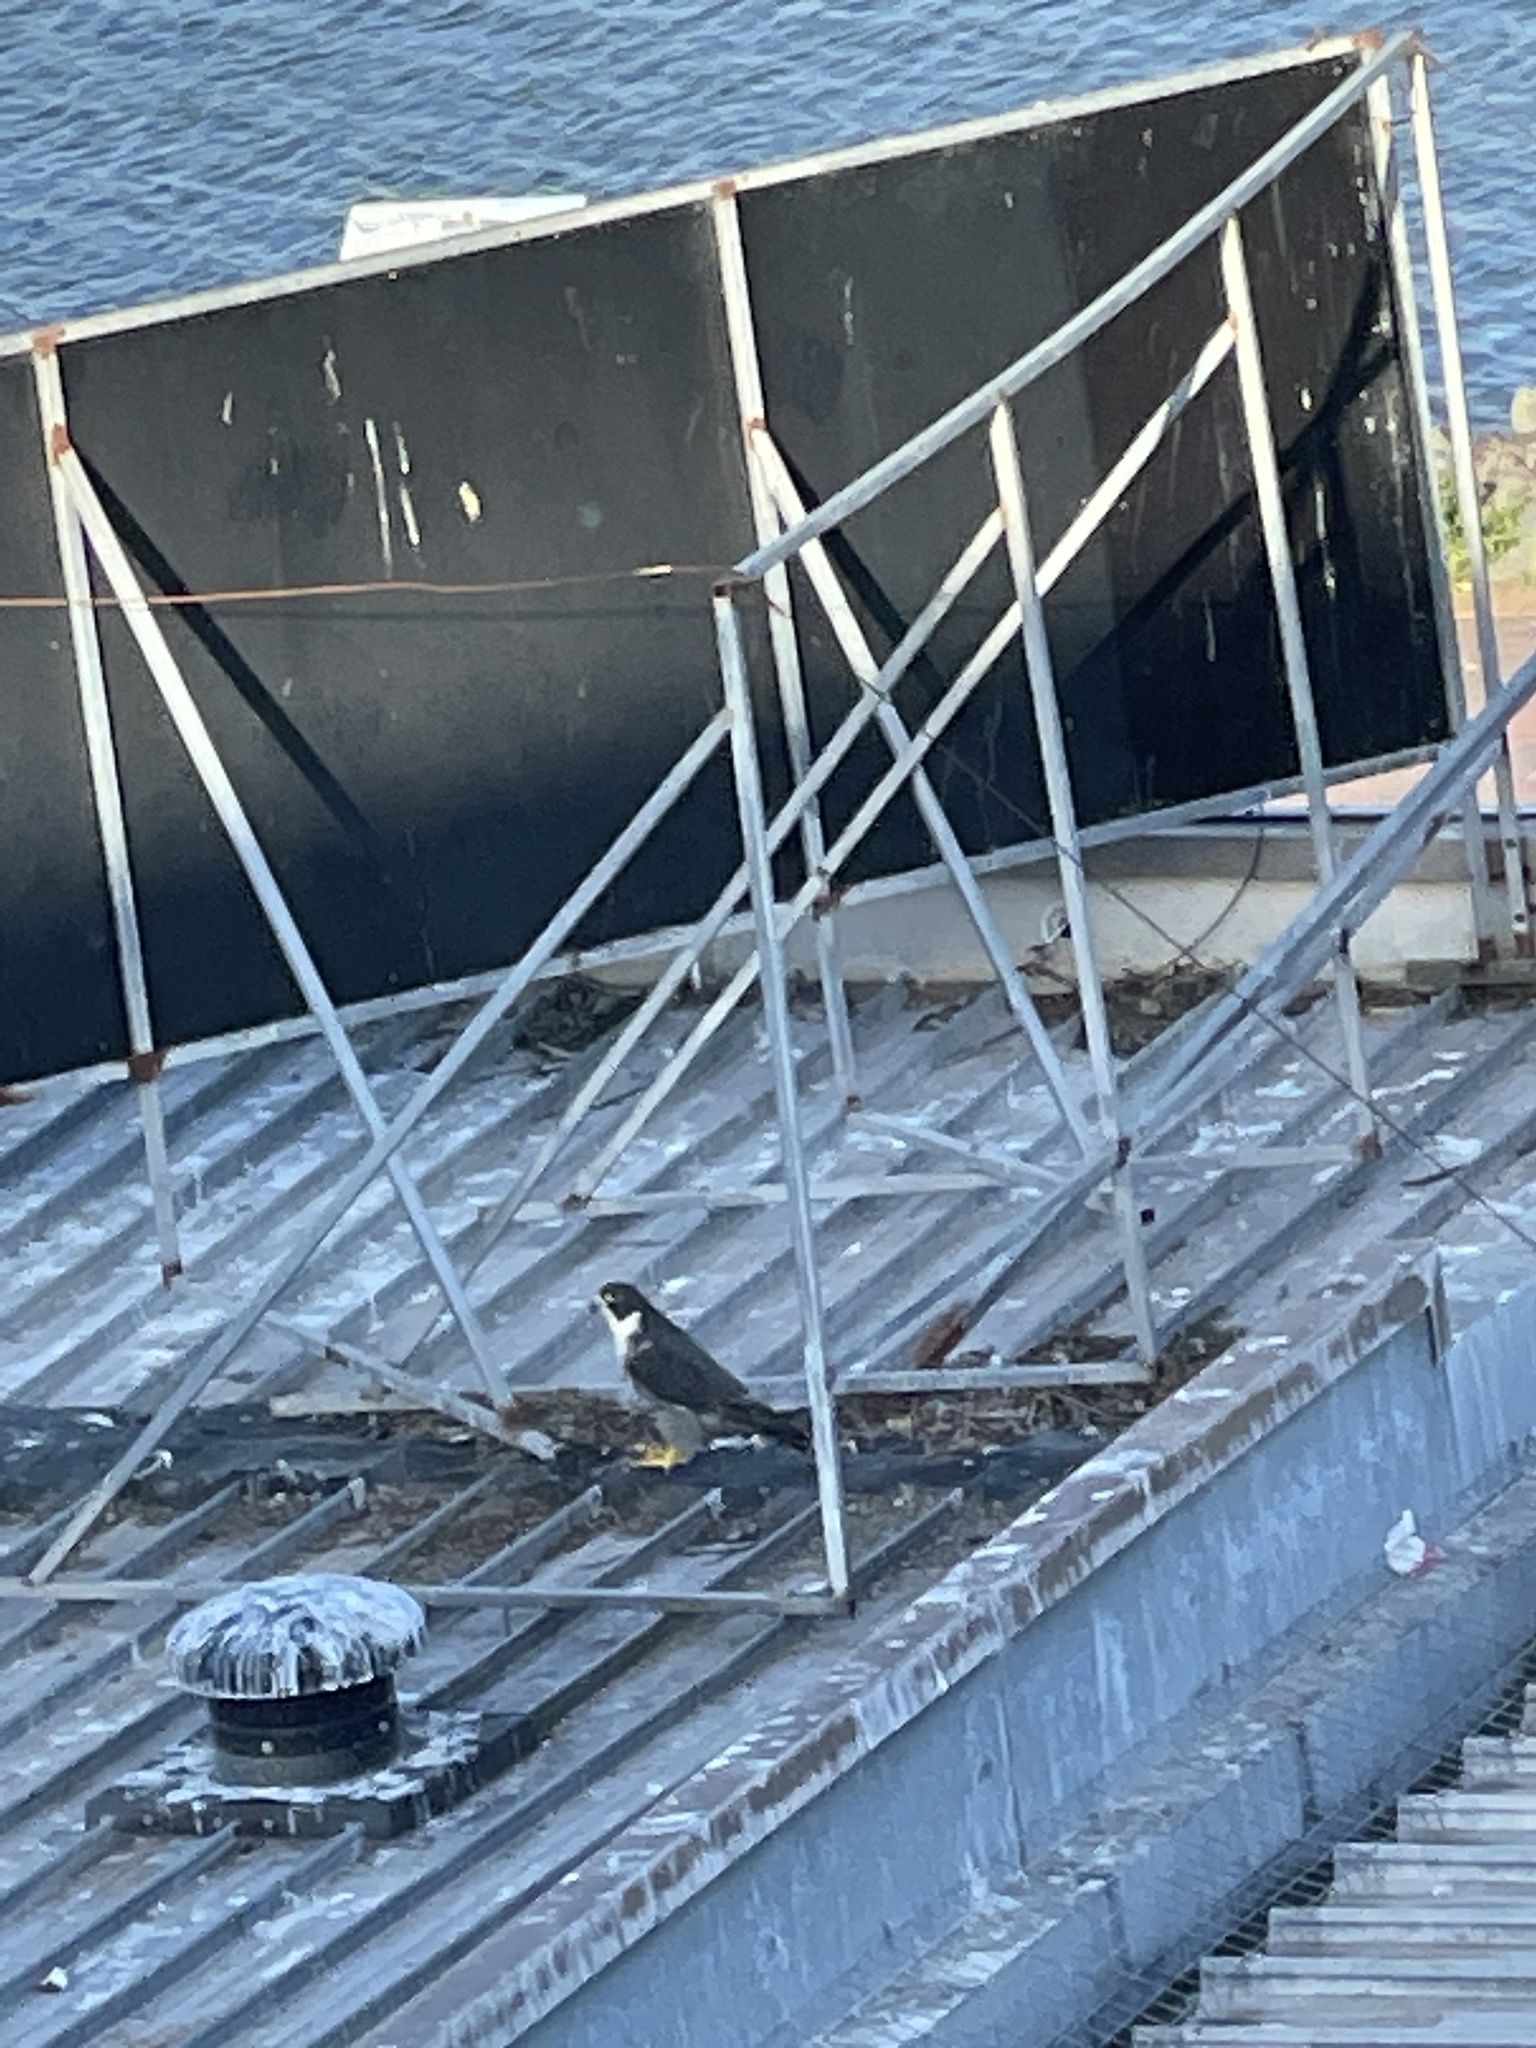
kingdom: Animalia
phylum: Chordata
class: Aves
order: Falconiformes
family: Falconidae
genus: Falco
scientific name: Falco peregrinus
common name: Peregrine falcon
